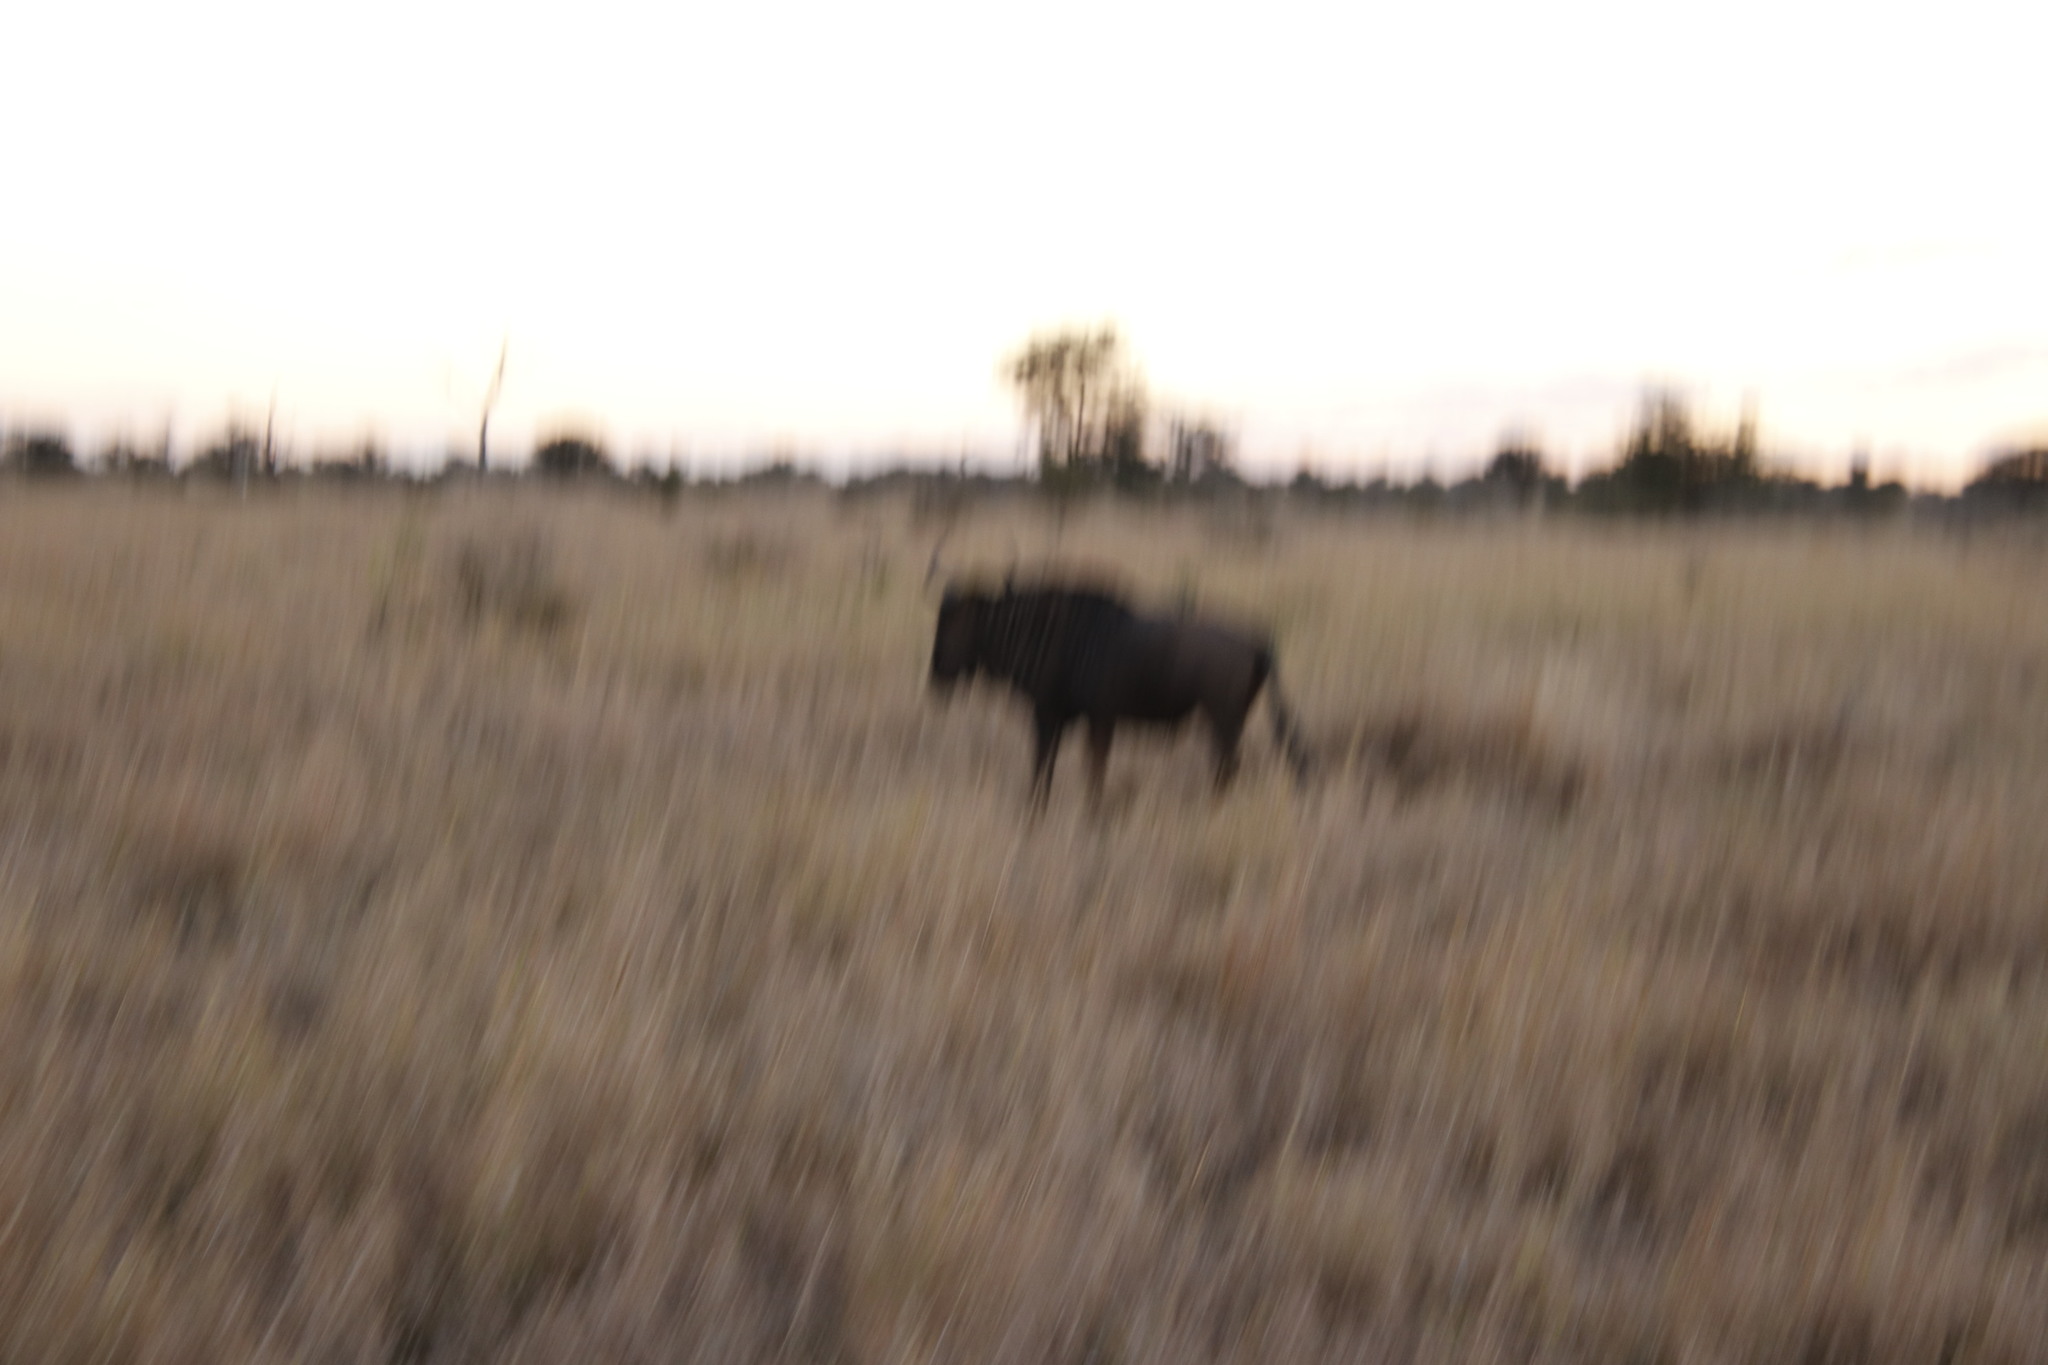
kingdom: Animalia
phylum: Chordata
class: Mammalia
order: Artiodactyla
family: Bovidae
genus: Connochaetes
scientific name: Connochaetes taurinus
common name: Blue wildebeest
